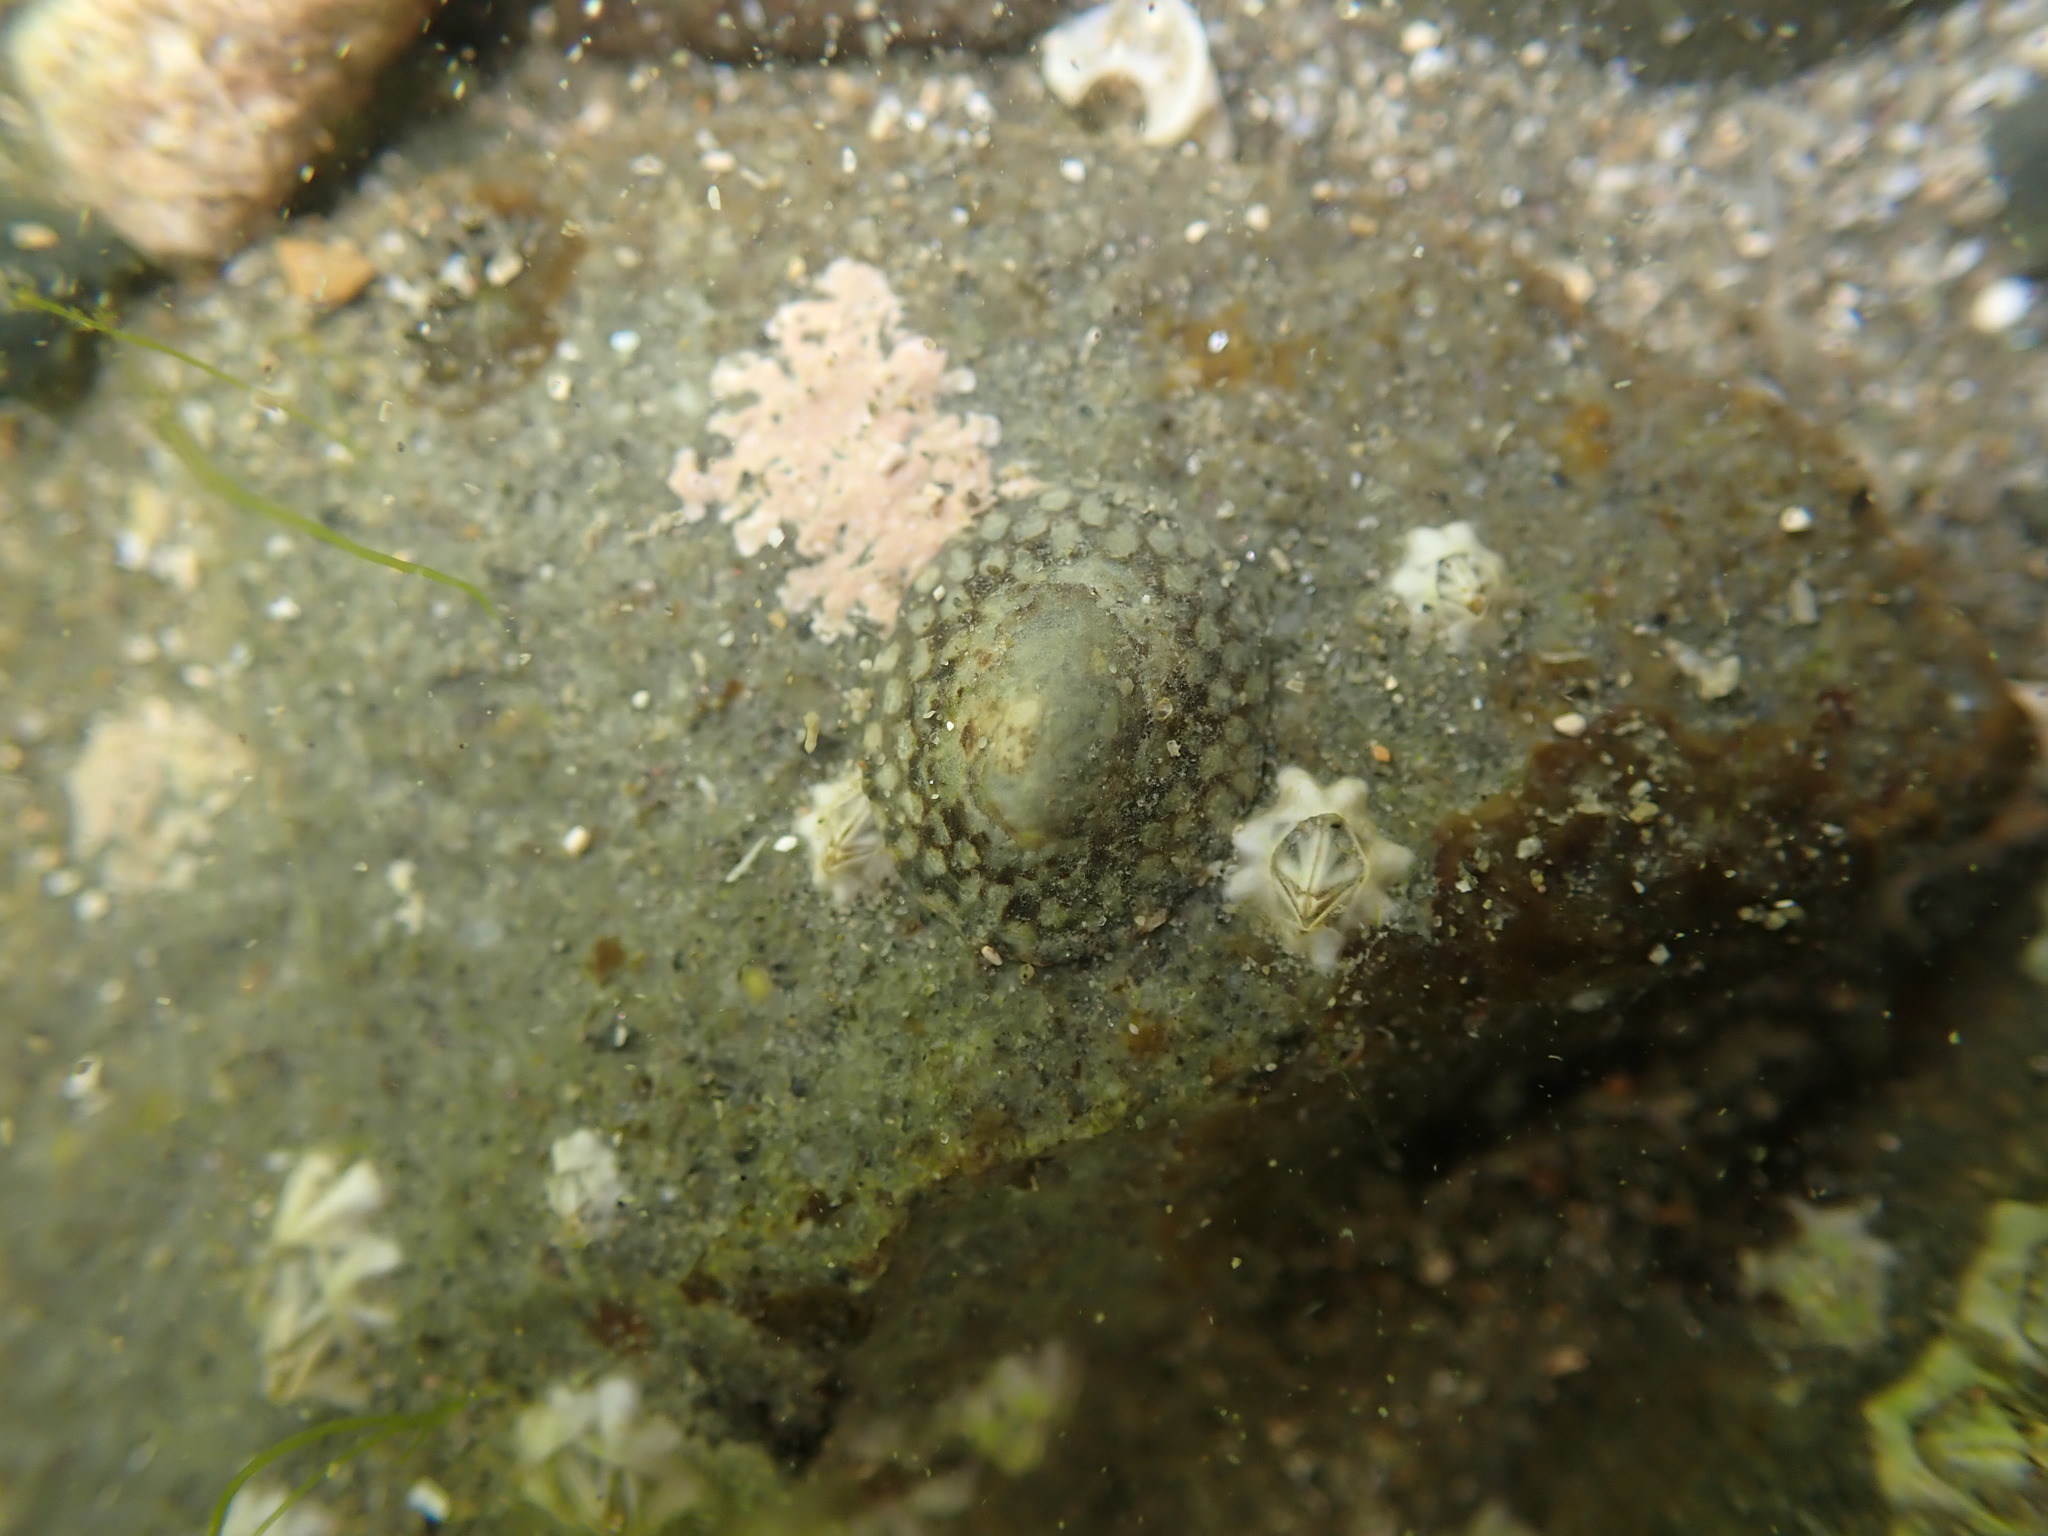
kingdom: Animalia
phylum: Mollusca
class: Gastropoda
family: Lottiidae
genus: Notoacmea
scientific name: Notoacmea potae
